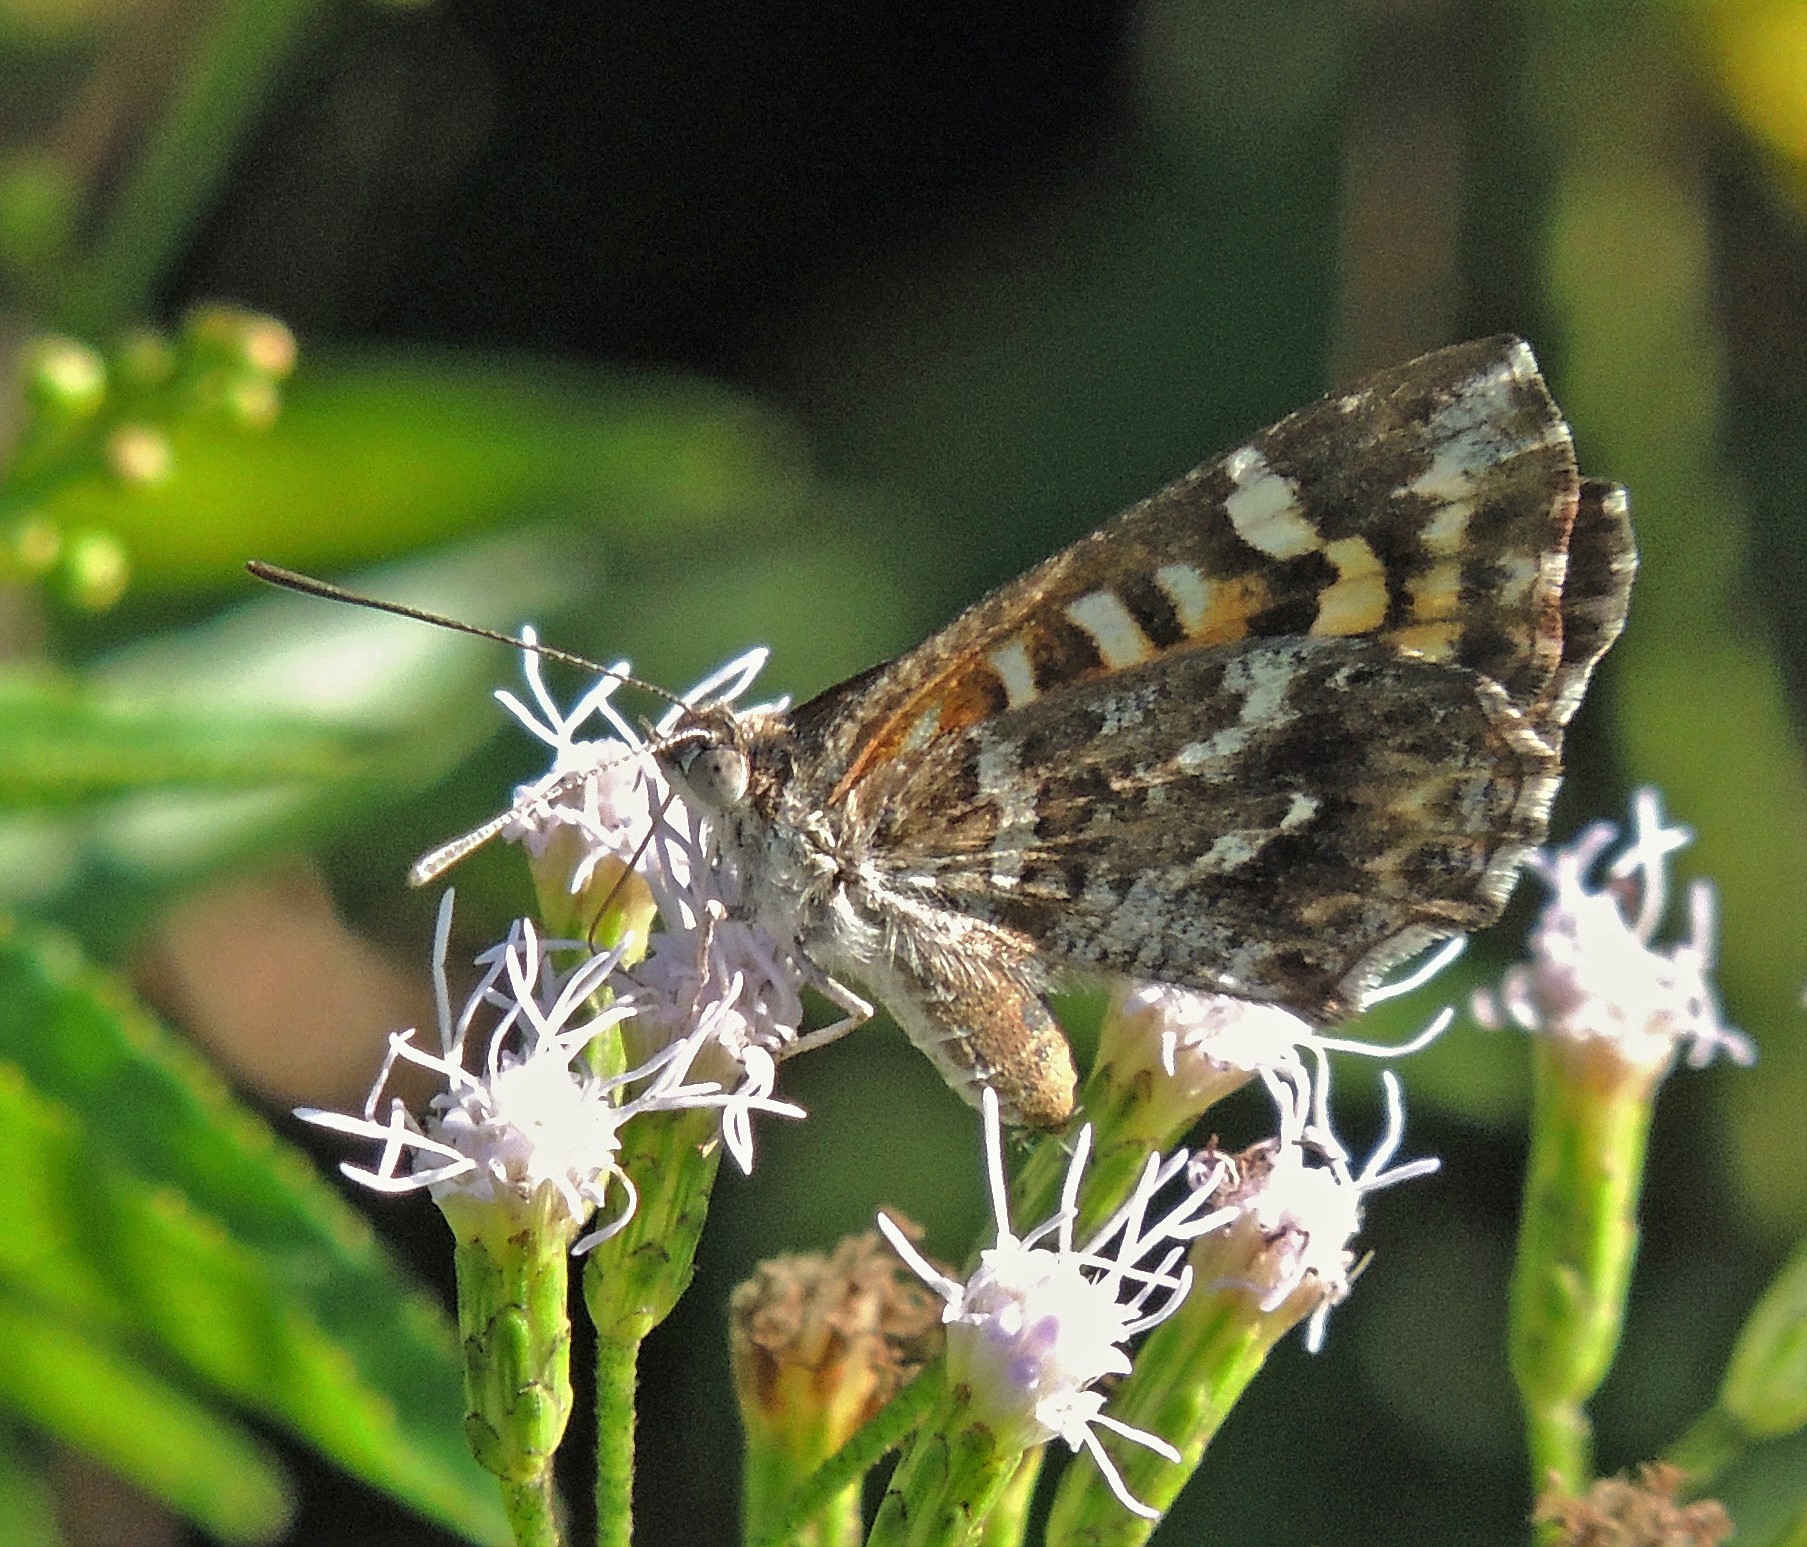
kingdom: Animalia
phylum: Arthropoda
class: Insecta
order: Lepidoptera
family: Lycaenidae
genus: Aricoris
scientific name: Aricoris chilensis
